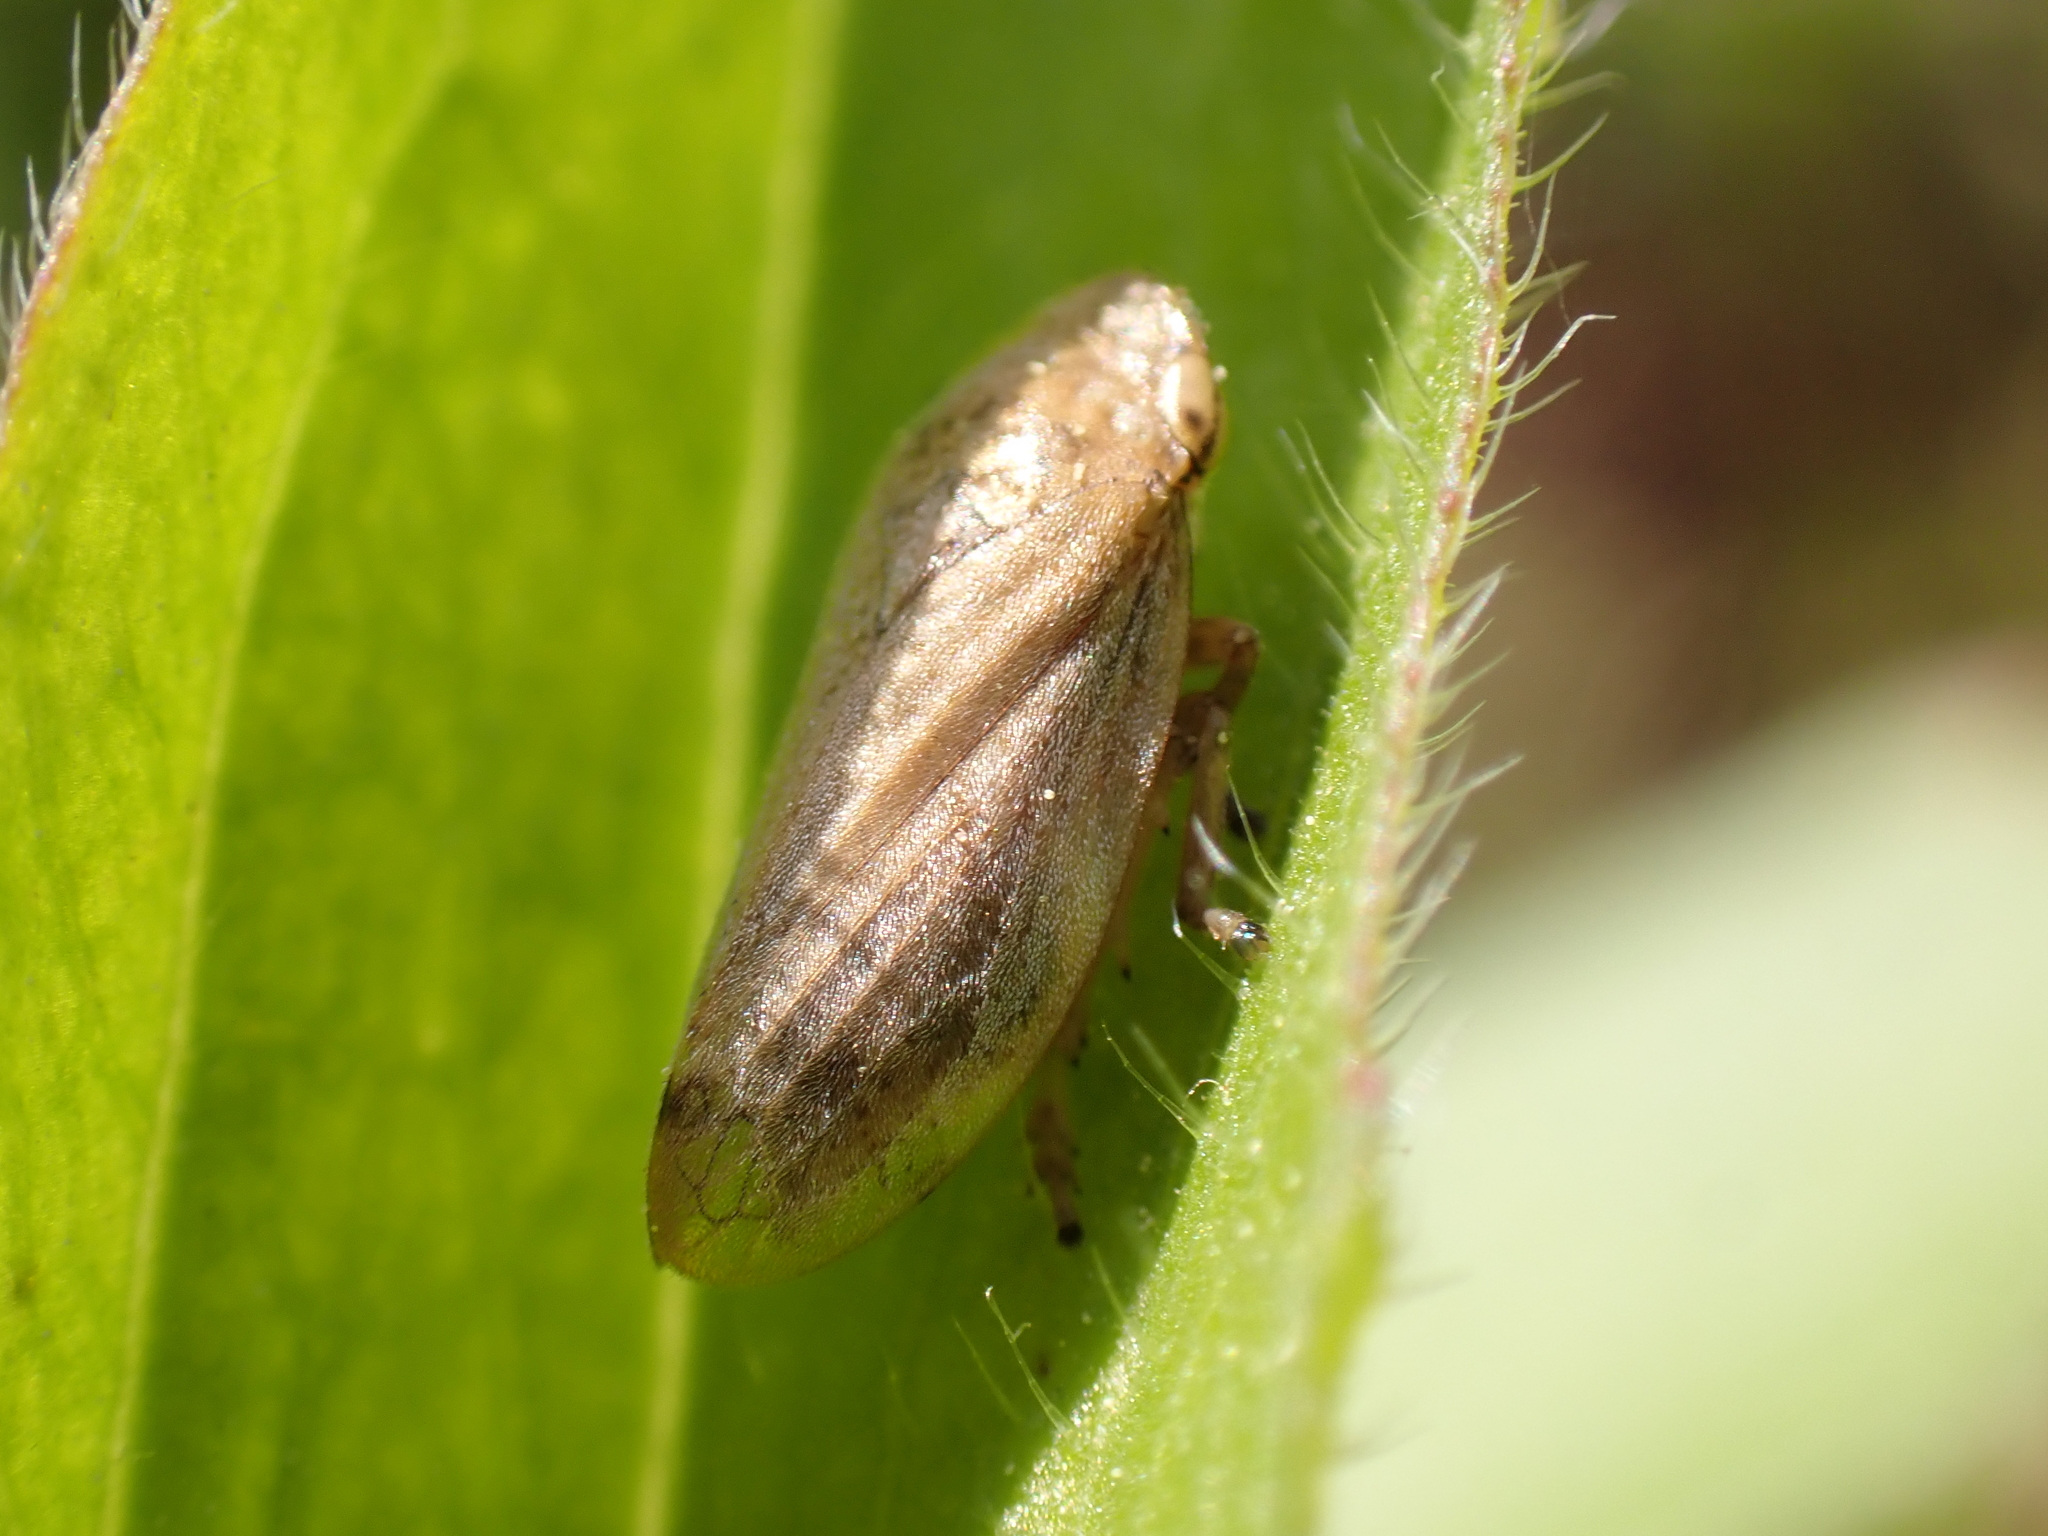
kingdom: Animalia
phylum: Arthropoda
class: Insecta
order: Hemiptera
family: Aphrophoridae
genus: Philaenus
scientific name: Philaenus spumarius
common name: Meadow spittlebug
